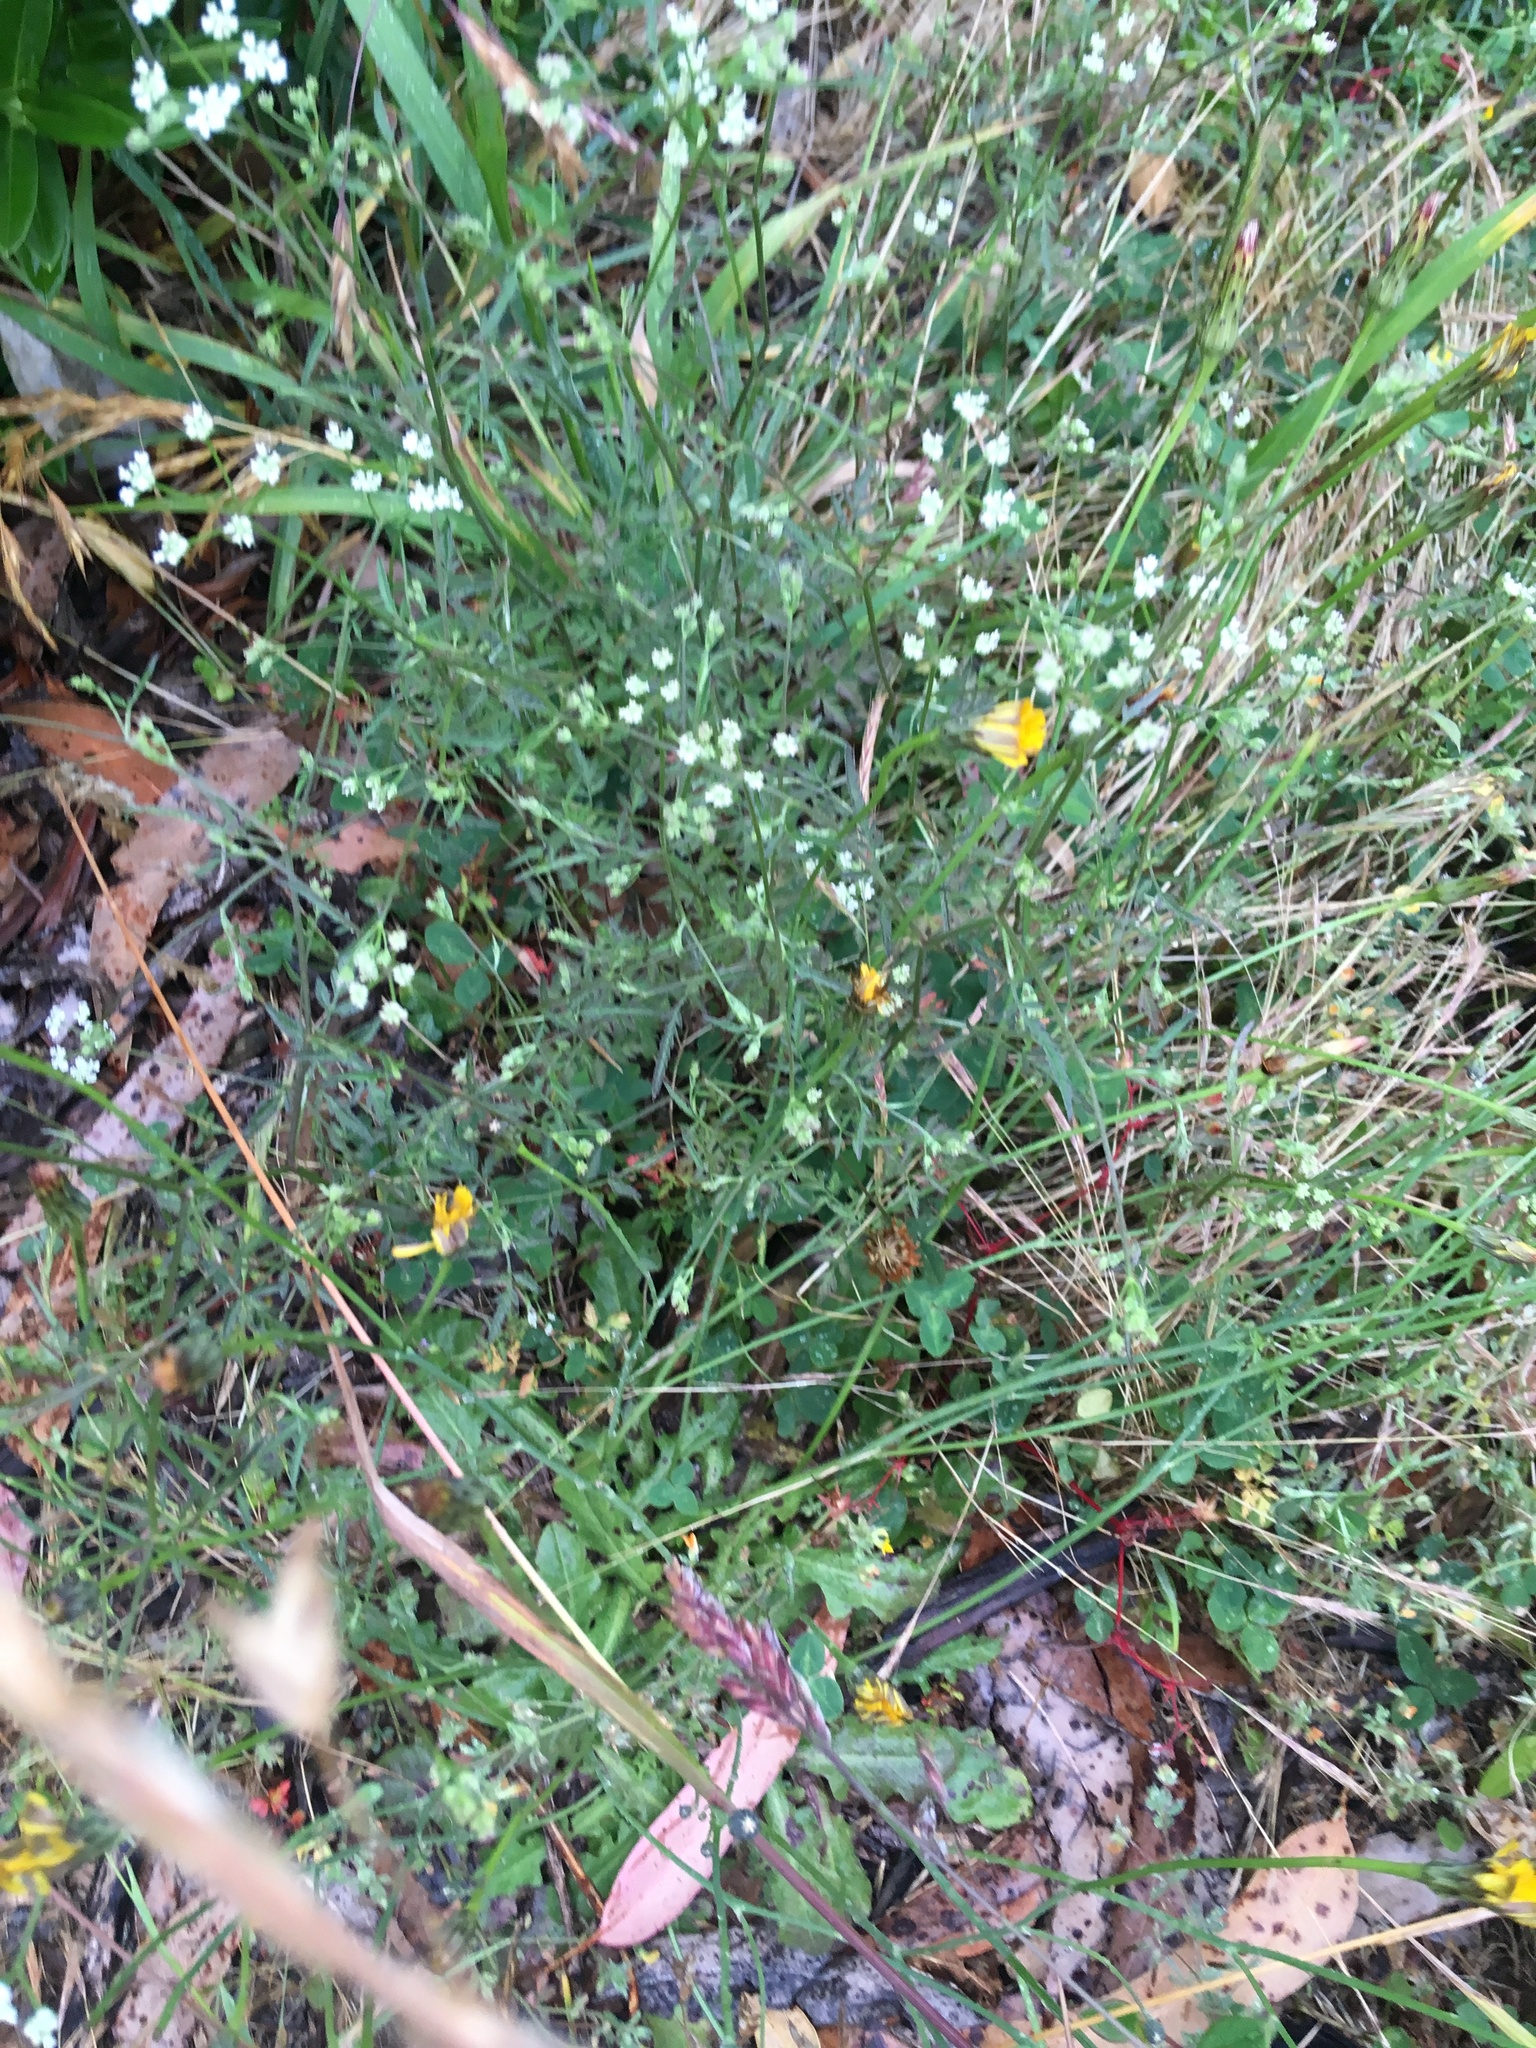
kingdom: Plantae
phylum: Tracheophyta
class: Magnoliopsida
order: Apiales
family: Apiaceae
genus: Sison
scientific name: Sison amomum
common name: Stone-parsley
